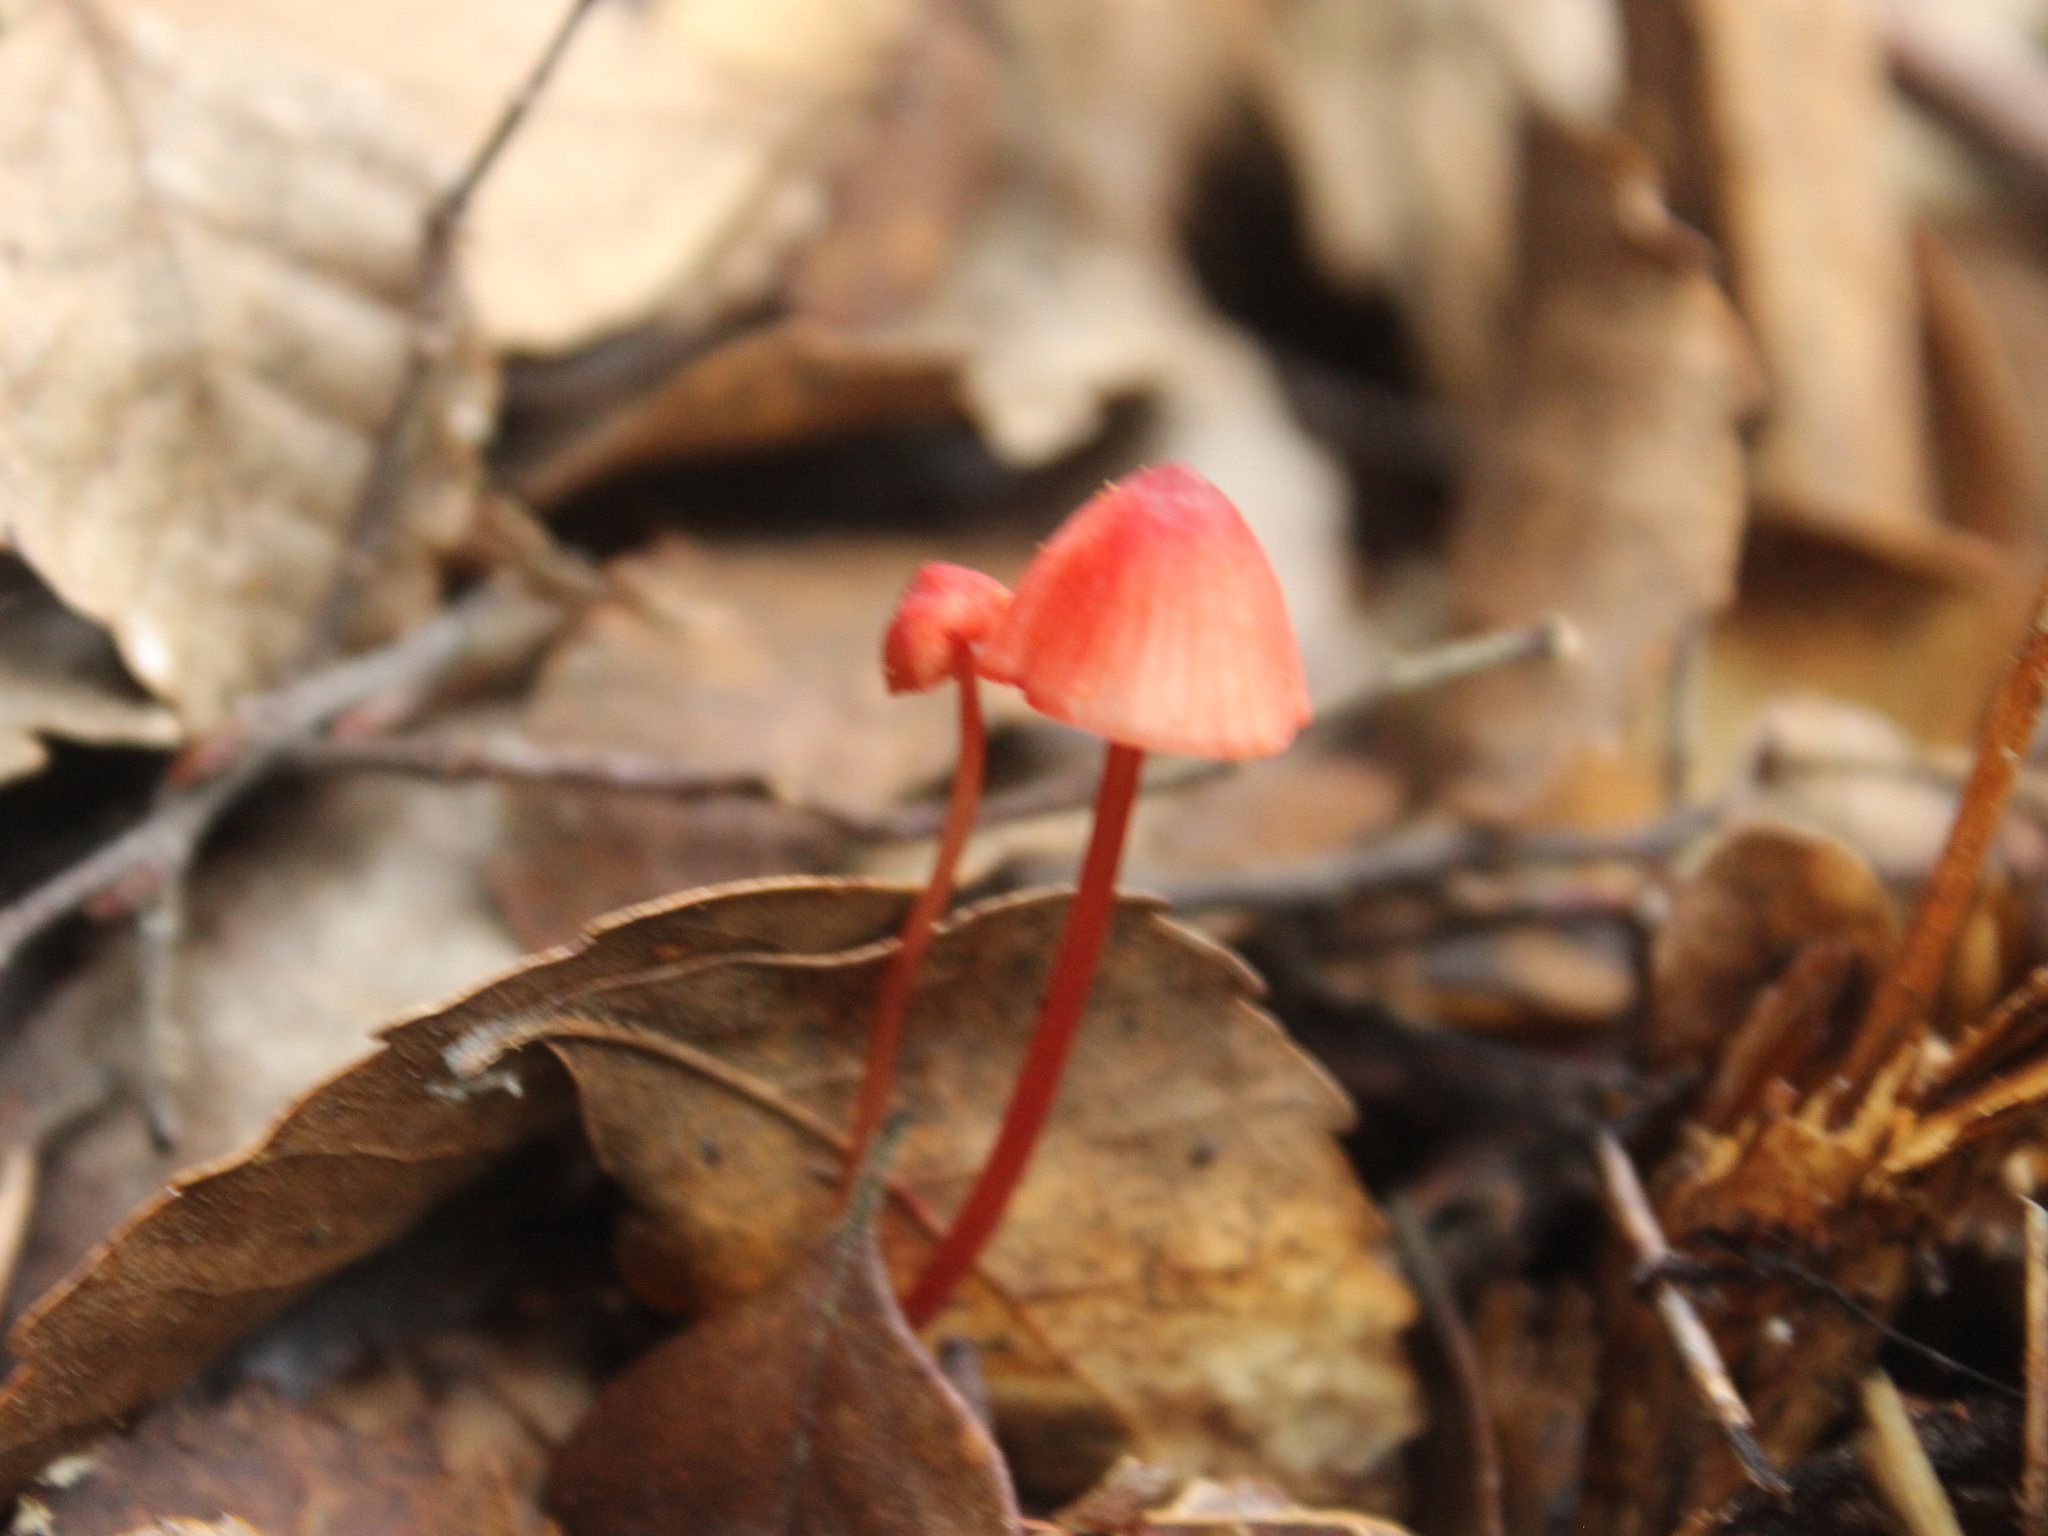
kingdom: Fungi
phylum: Basidiomycota
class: Agaricomycetes
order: Agaricales
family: Mycenaceae
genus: Mycena
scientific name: Mycena ura
